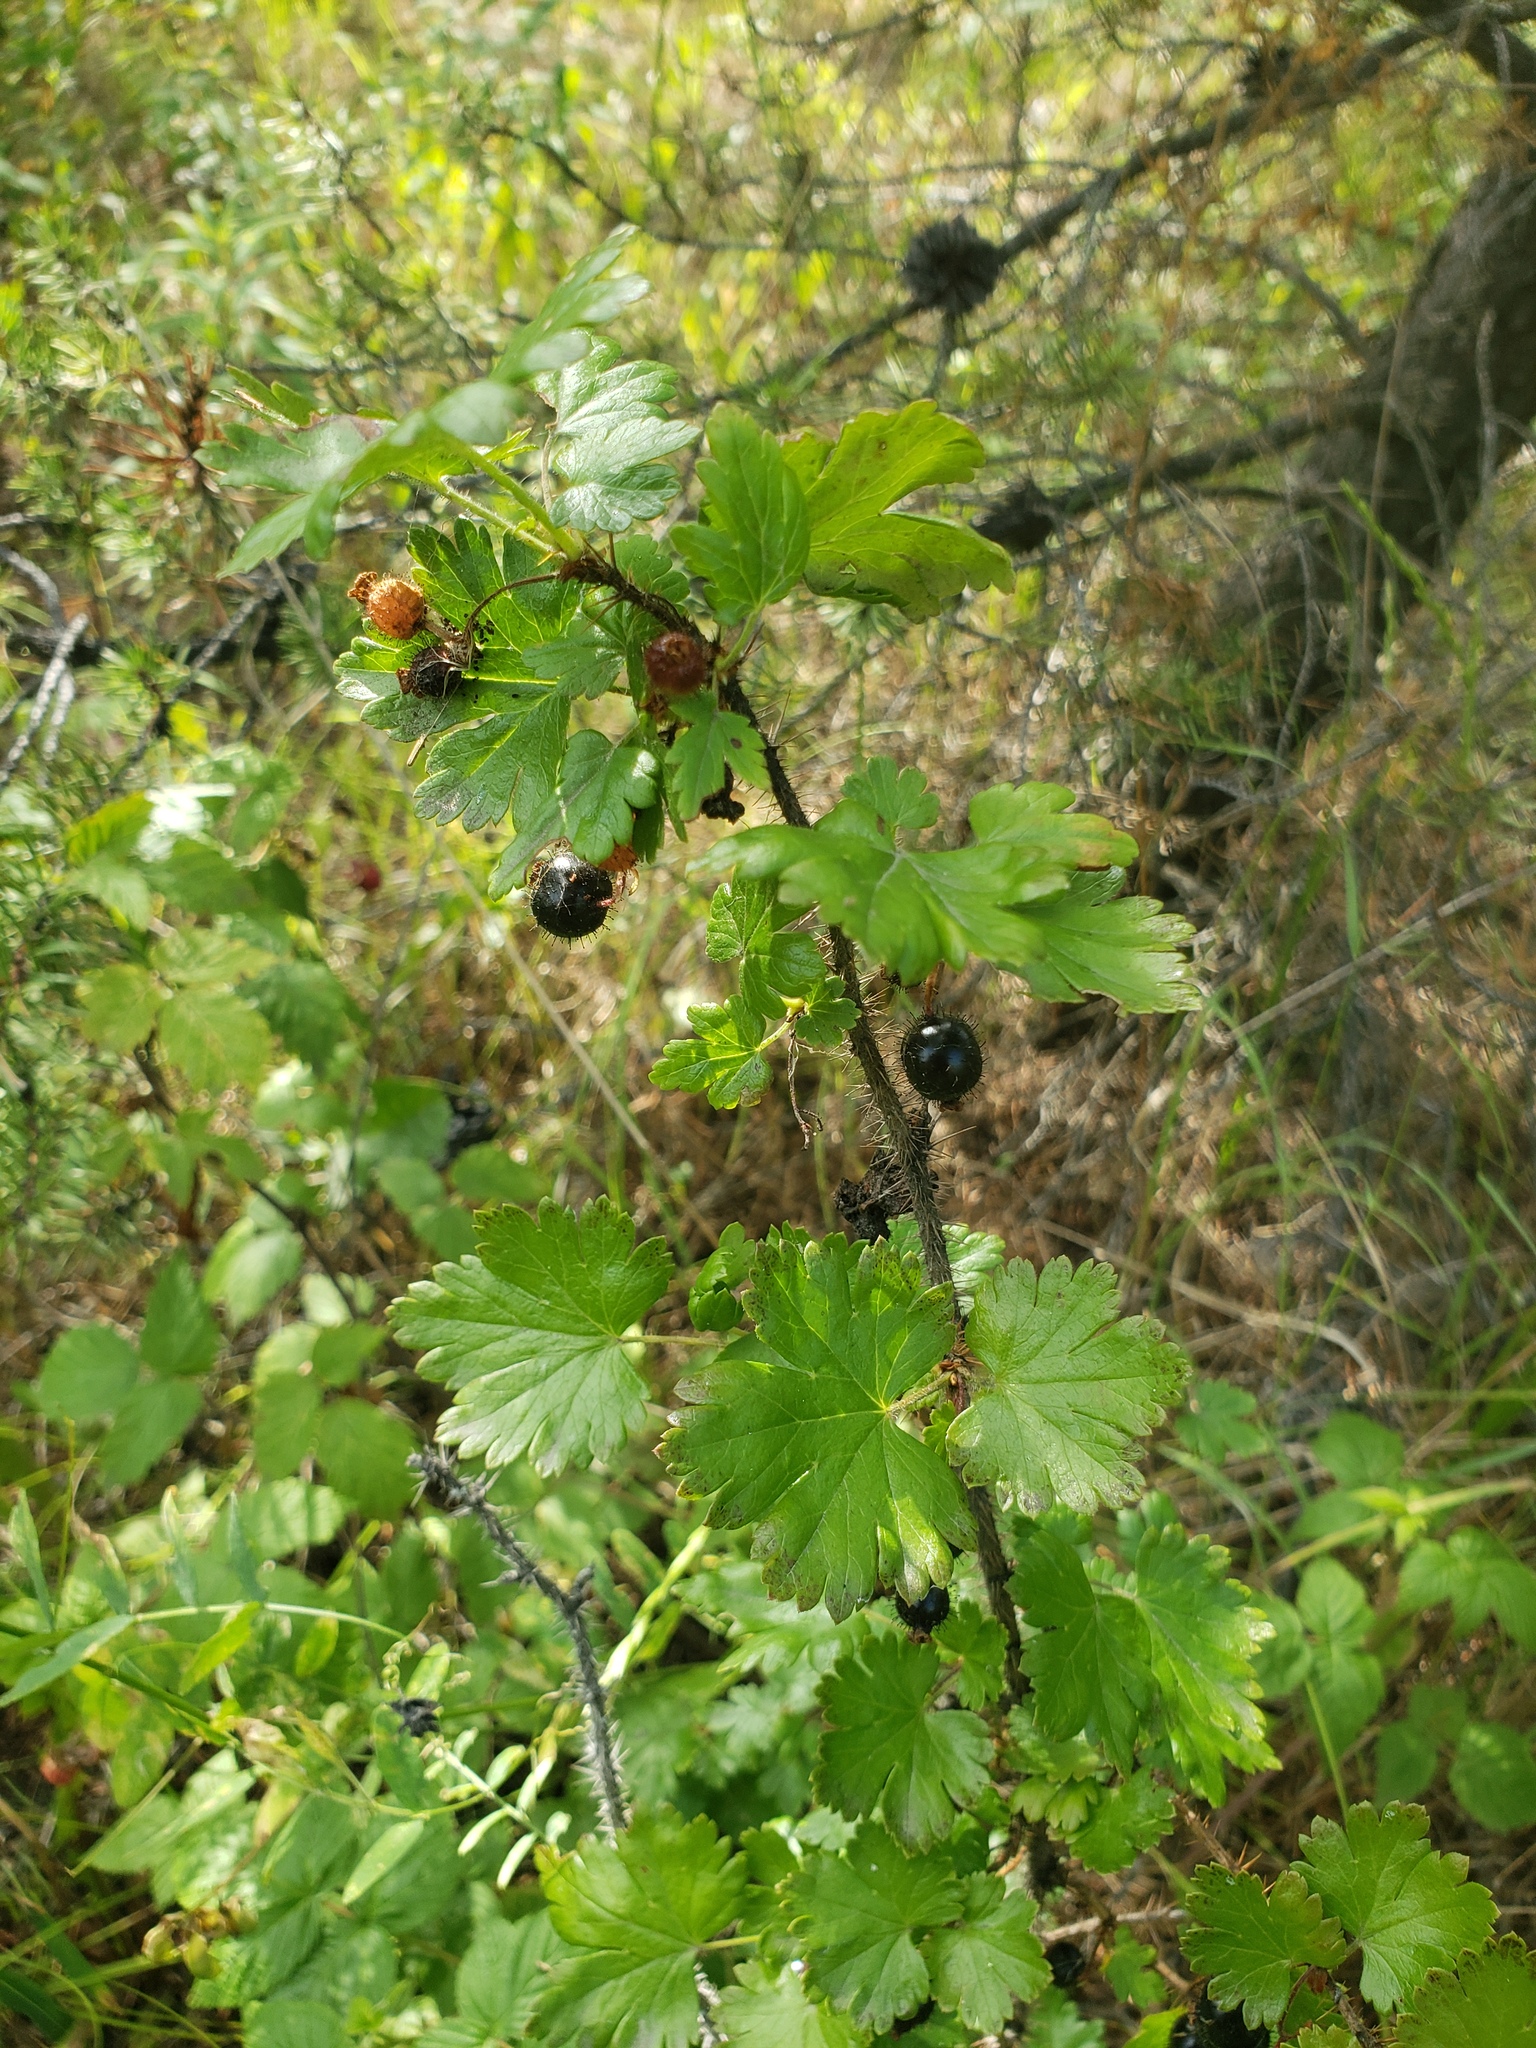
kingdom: Plantae
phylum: Tracheophyta
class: Magnoliopsida
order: Saxifragales
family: Grossulariaceae
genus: Ribes
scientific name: Ribes lacustre
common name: Black gooseberry
